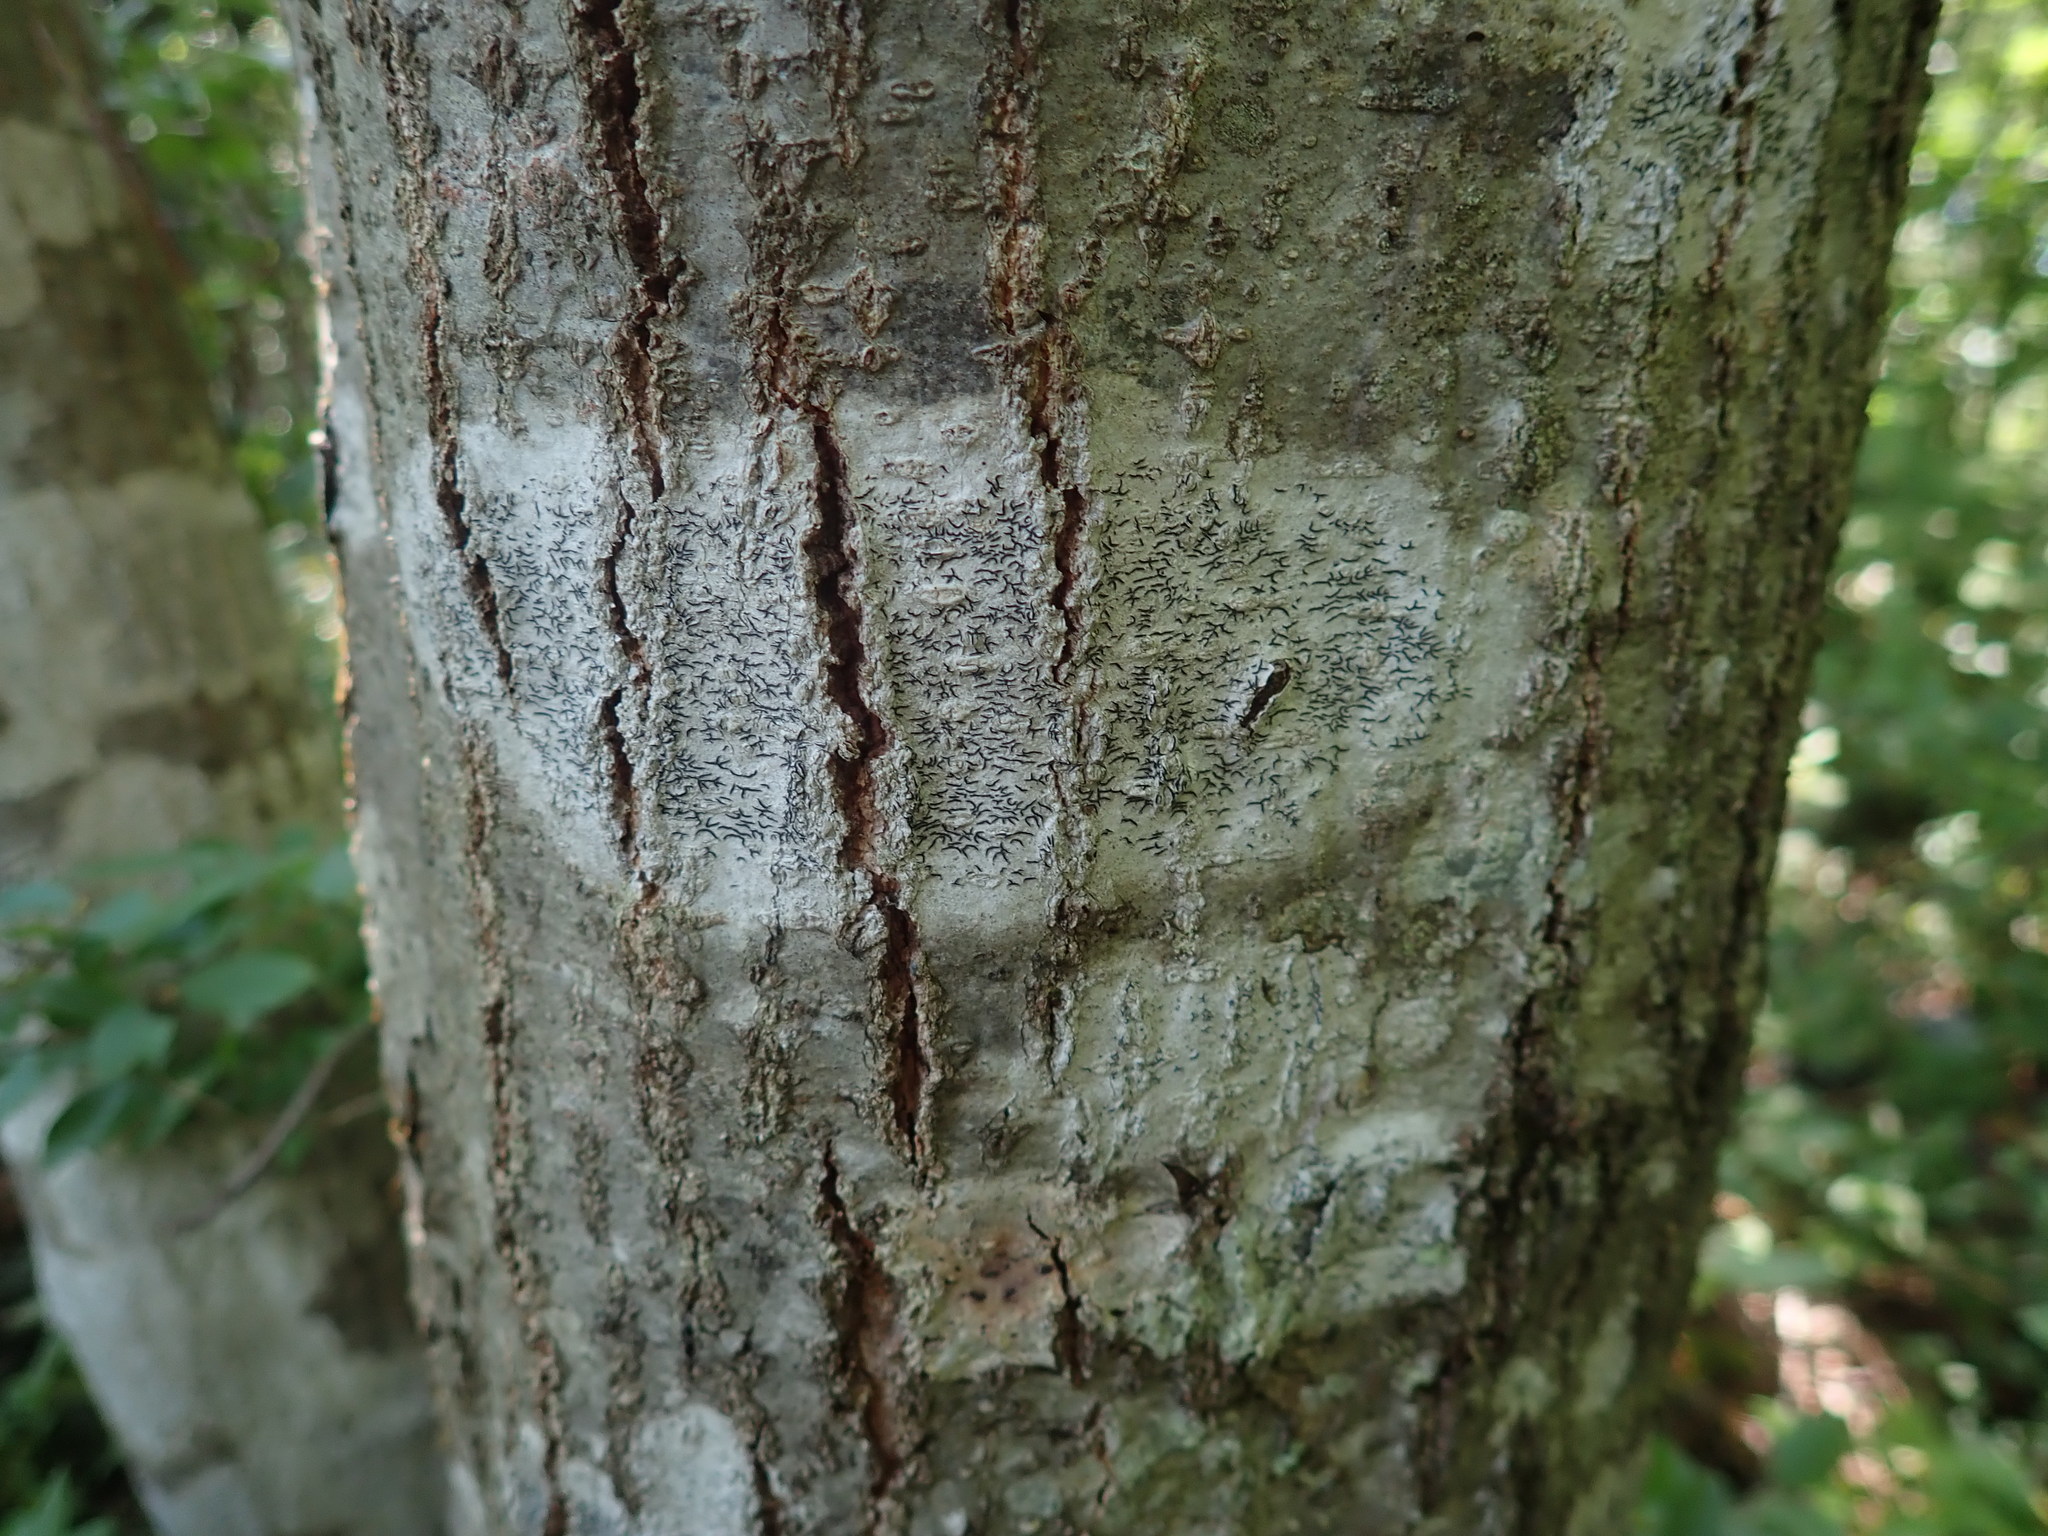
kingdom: Fungi
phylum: Ascomycota
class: Lecanoromycetes
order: Ostropales
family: Graphidaceae
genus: Graphis
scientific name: Graphis scripta
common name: Script lichen
